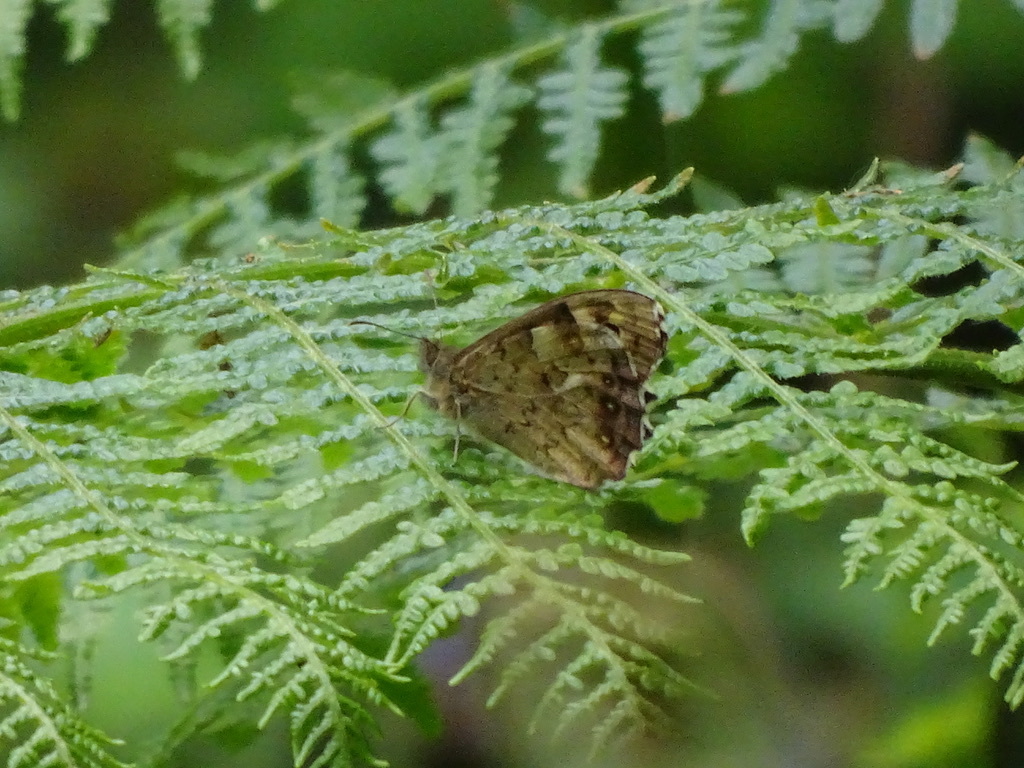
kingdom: Animalia
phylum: Arthropoda
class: Insecta
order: Lepidoptera
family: Nymphalidae
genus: Pararge
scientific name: Pararge aegeria
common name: Speckled wood
